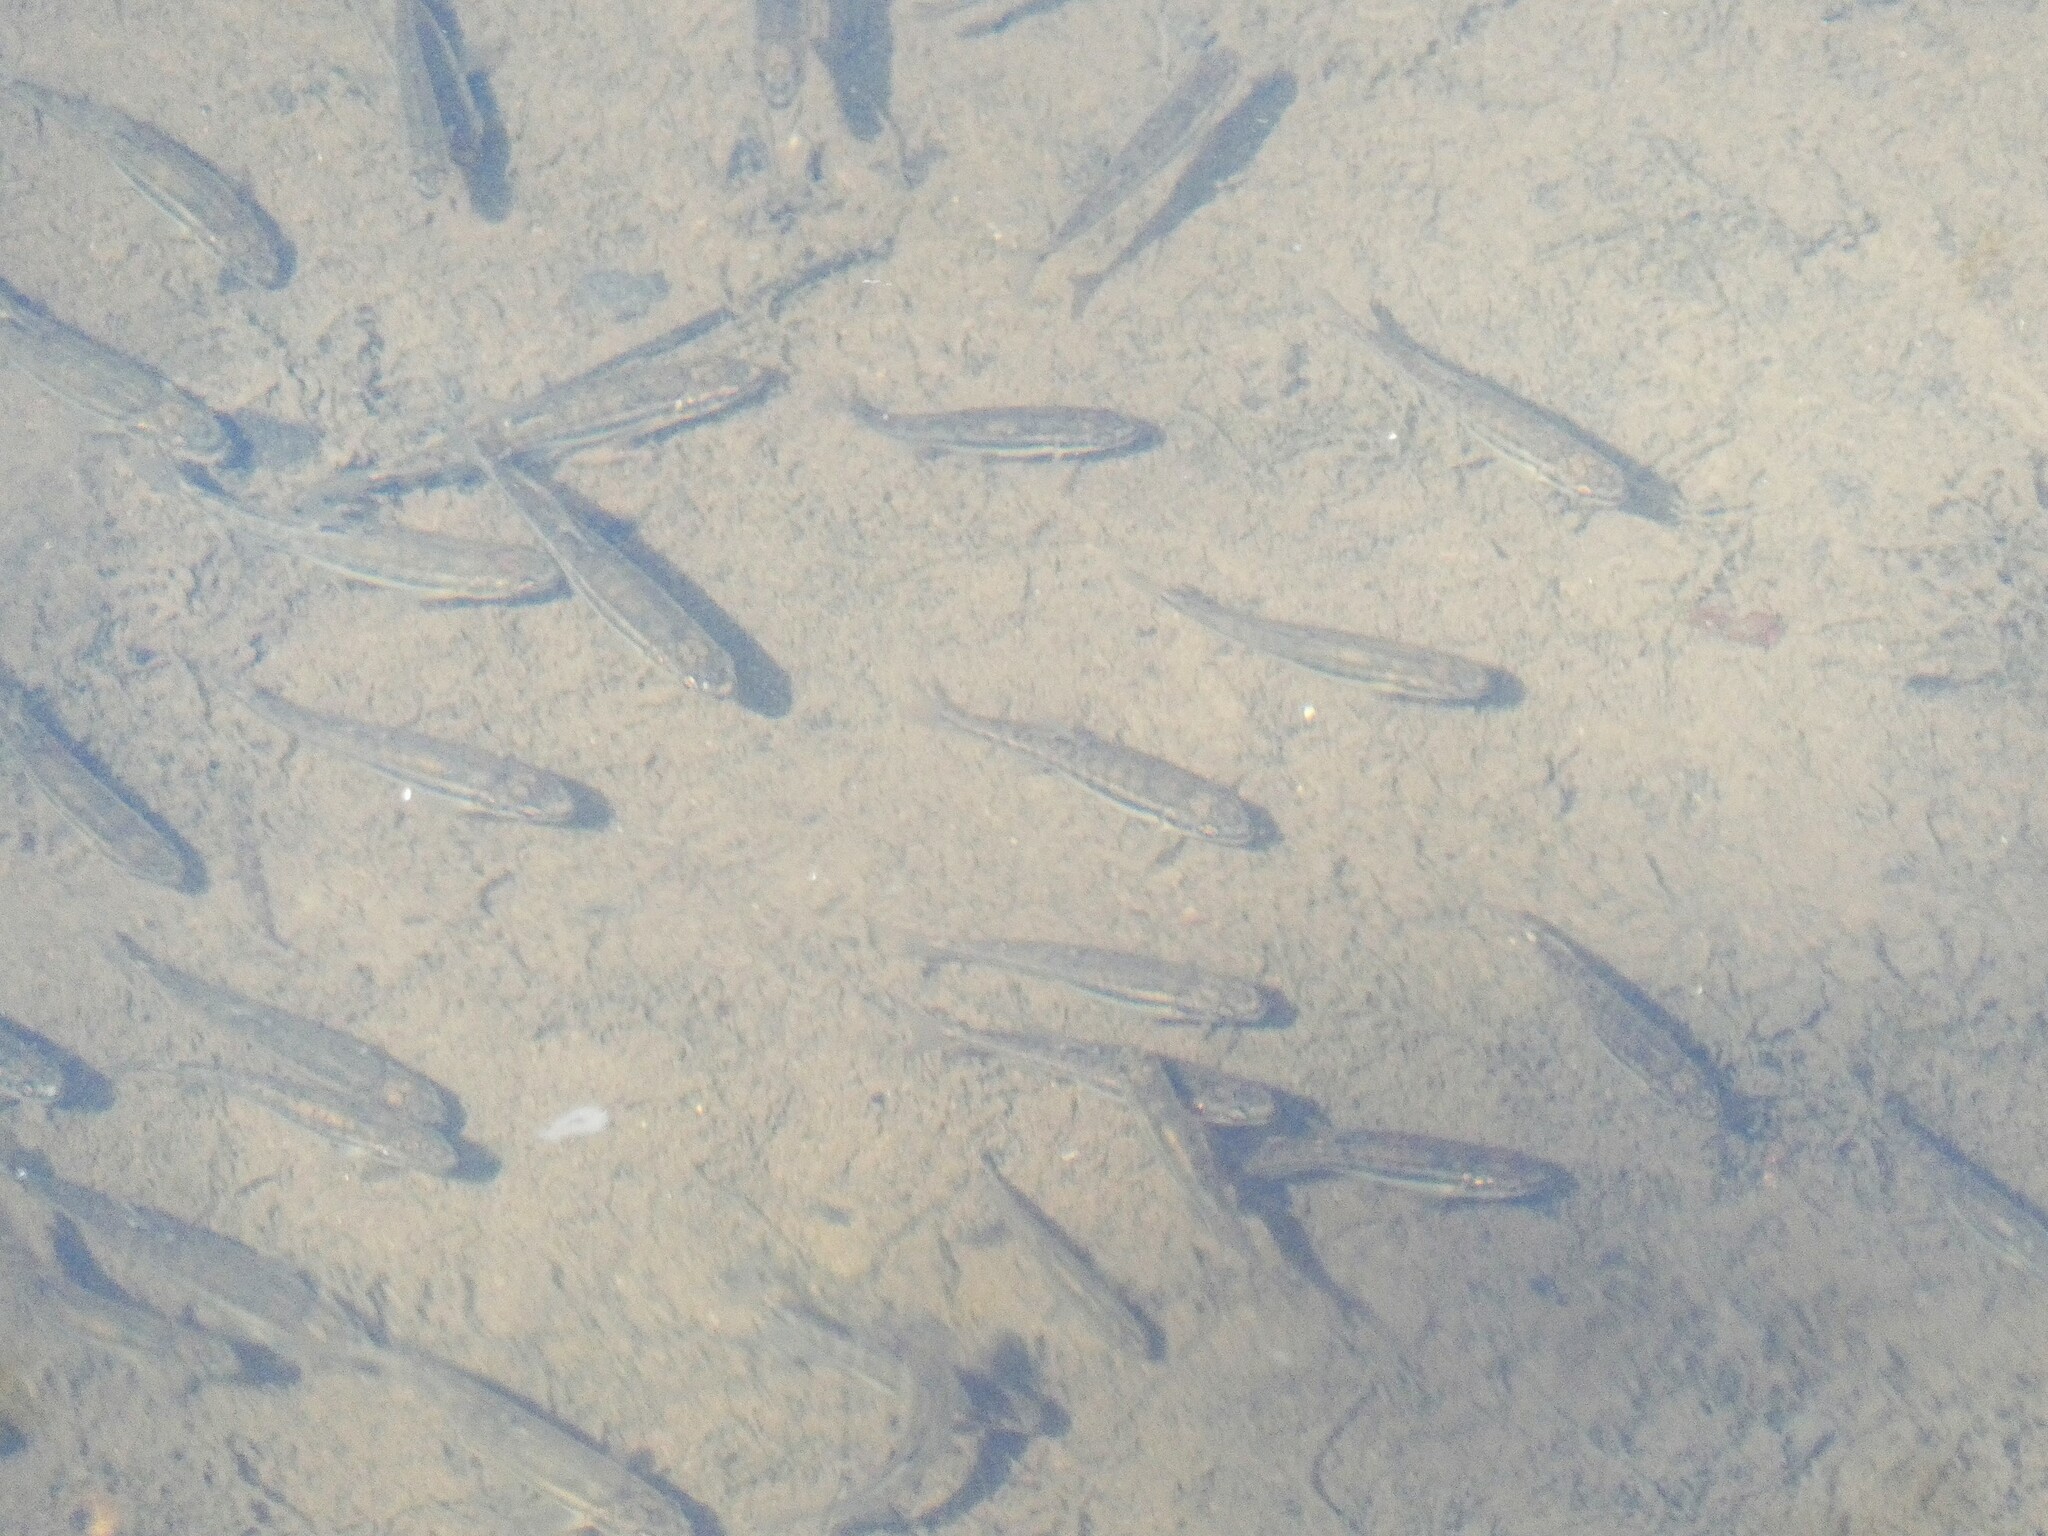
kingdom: Animalia
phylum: Chordata
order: Cypriniformes
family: Cyprinidae
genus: Phoxinus
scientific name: Phoxinus phoxinus
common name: Minnow
